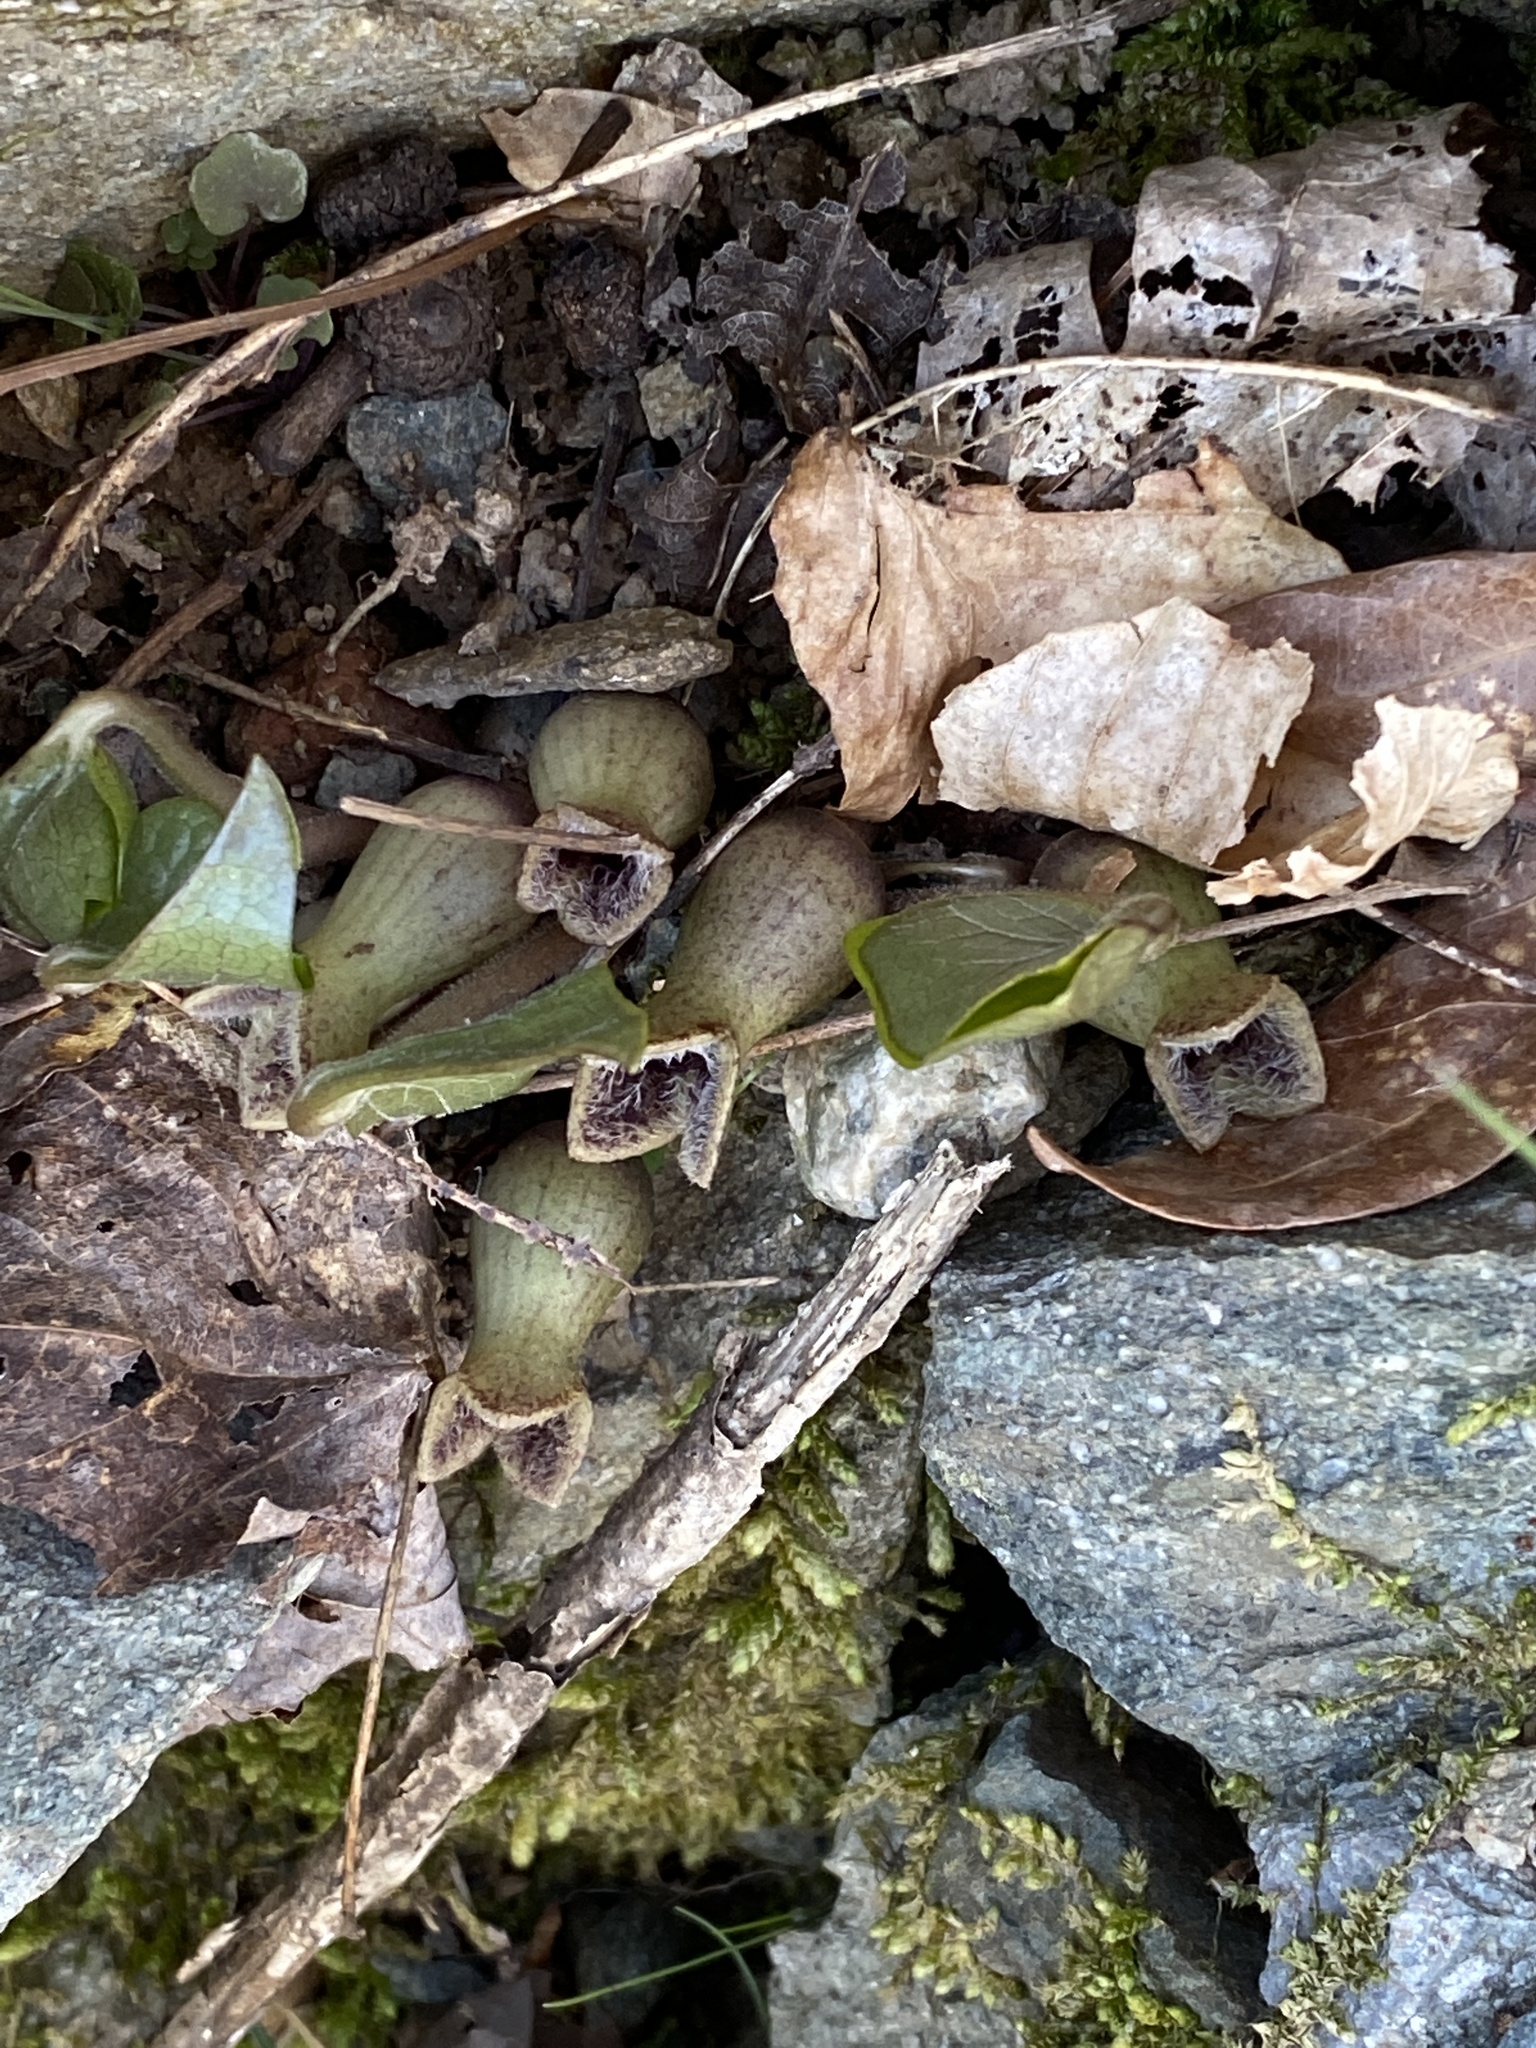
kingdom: Plantae
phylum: Tracheophyta
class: Magnoliopsida
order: Piperales
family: Aristolochiaceae
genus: Hexastylis
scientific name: Hexastylis arifolia
